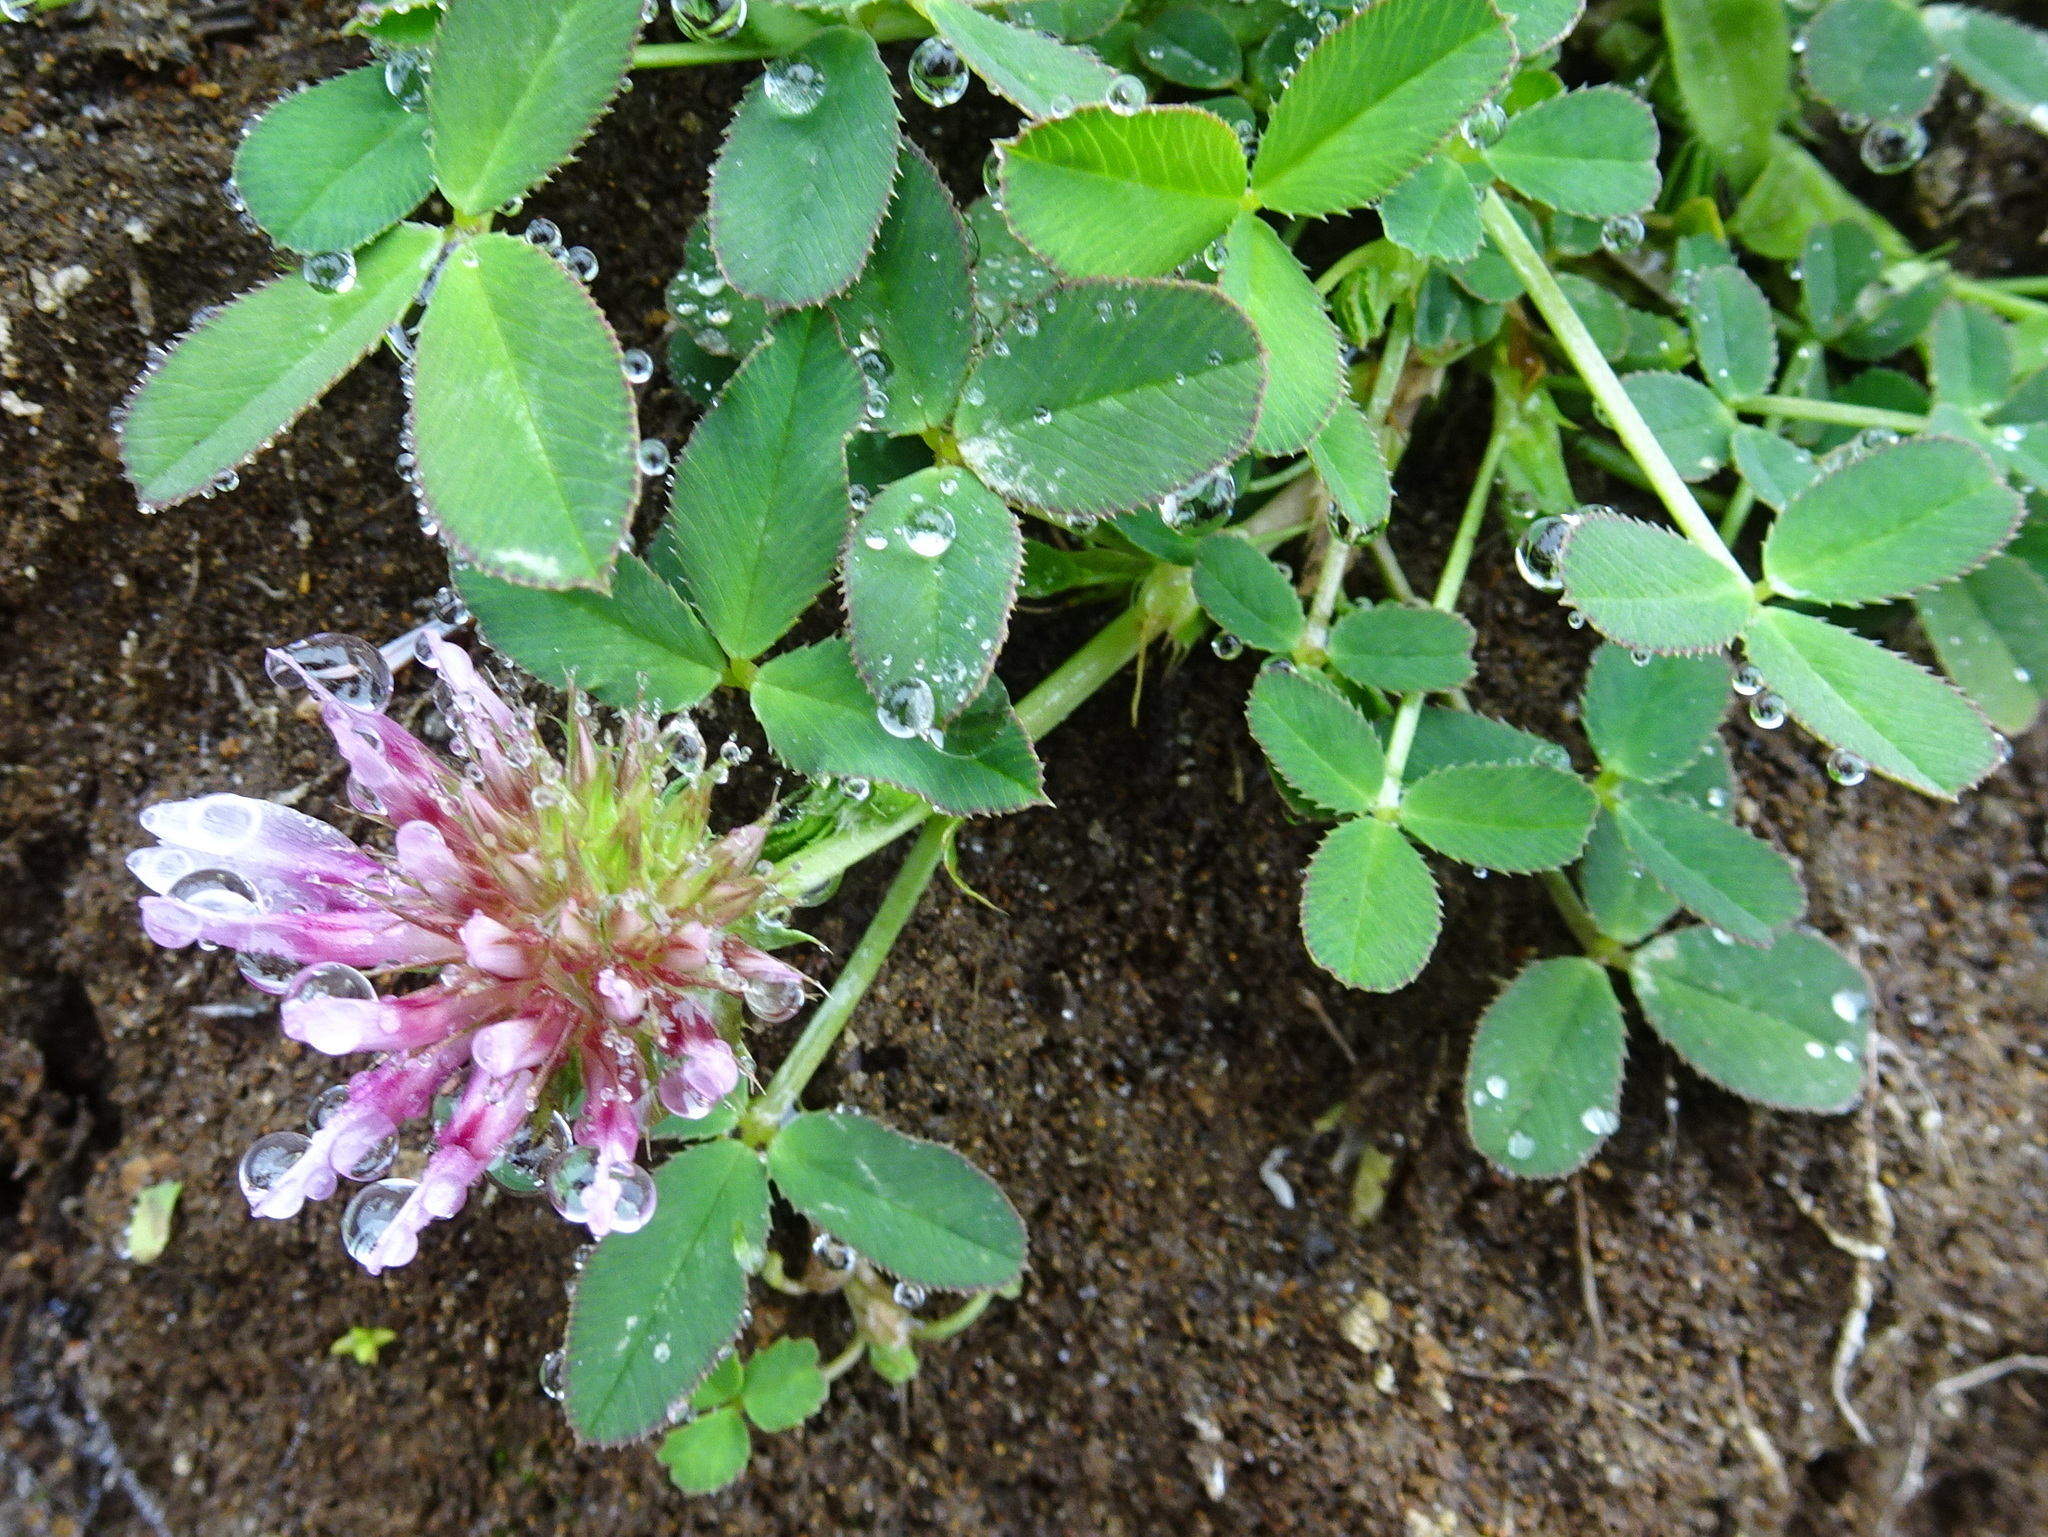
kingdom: Plantae
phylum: Tracheophyta
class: Magnoliopsida
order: Fabales
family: Fabaceae
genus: Trifolium
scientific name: Trifolium wormskioldii
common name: Springbank clover
